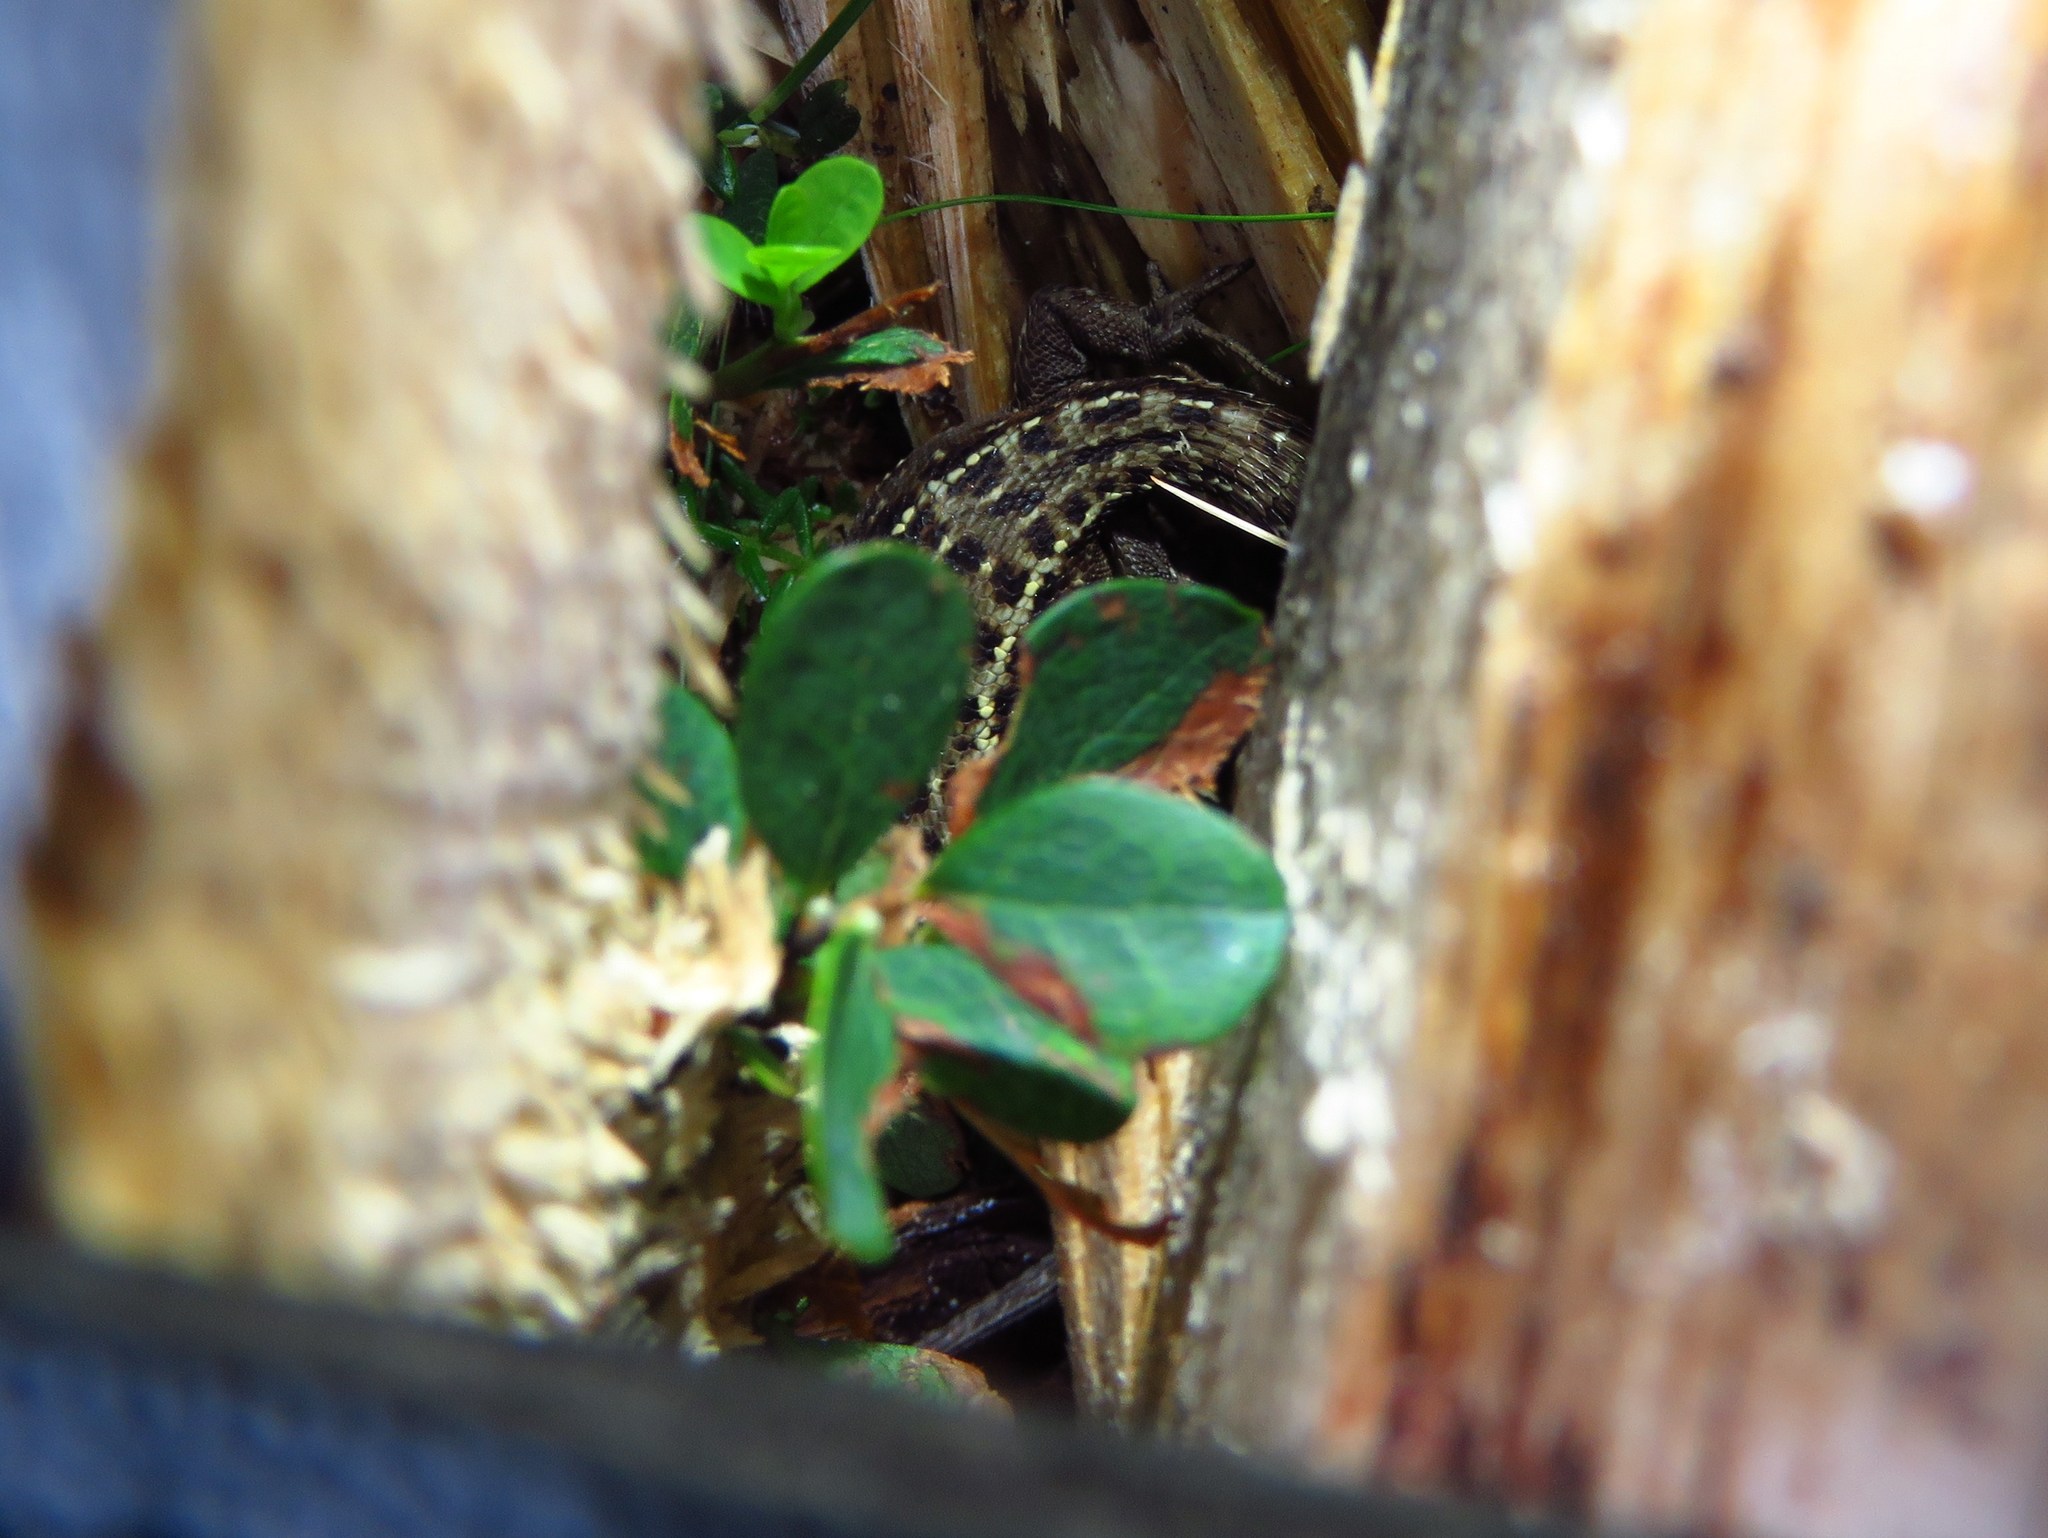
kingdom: Animalia
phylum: Chordata
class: Squamata
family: Lacertidae
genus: Zootoca
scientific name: Zootoca vivipara
